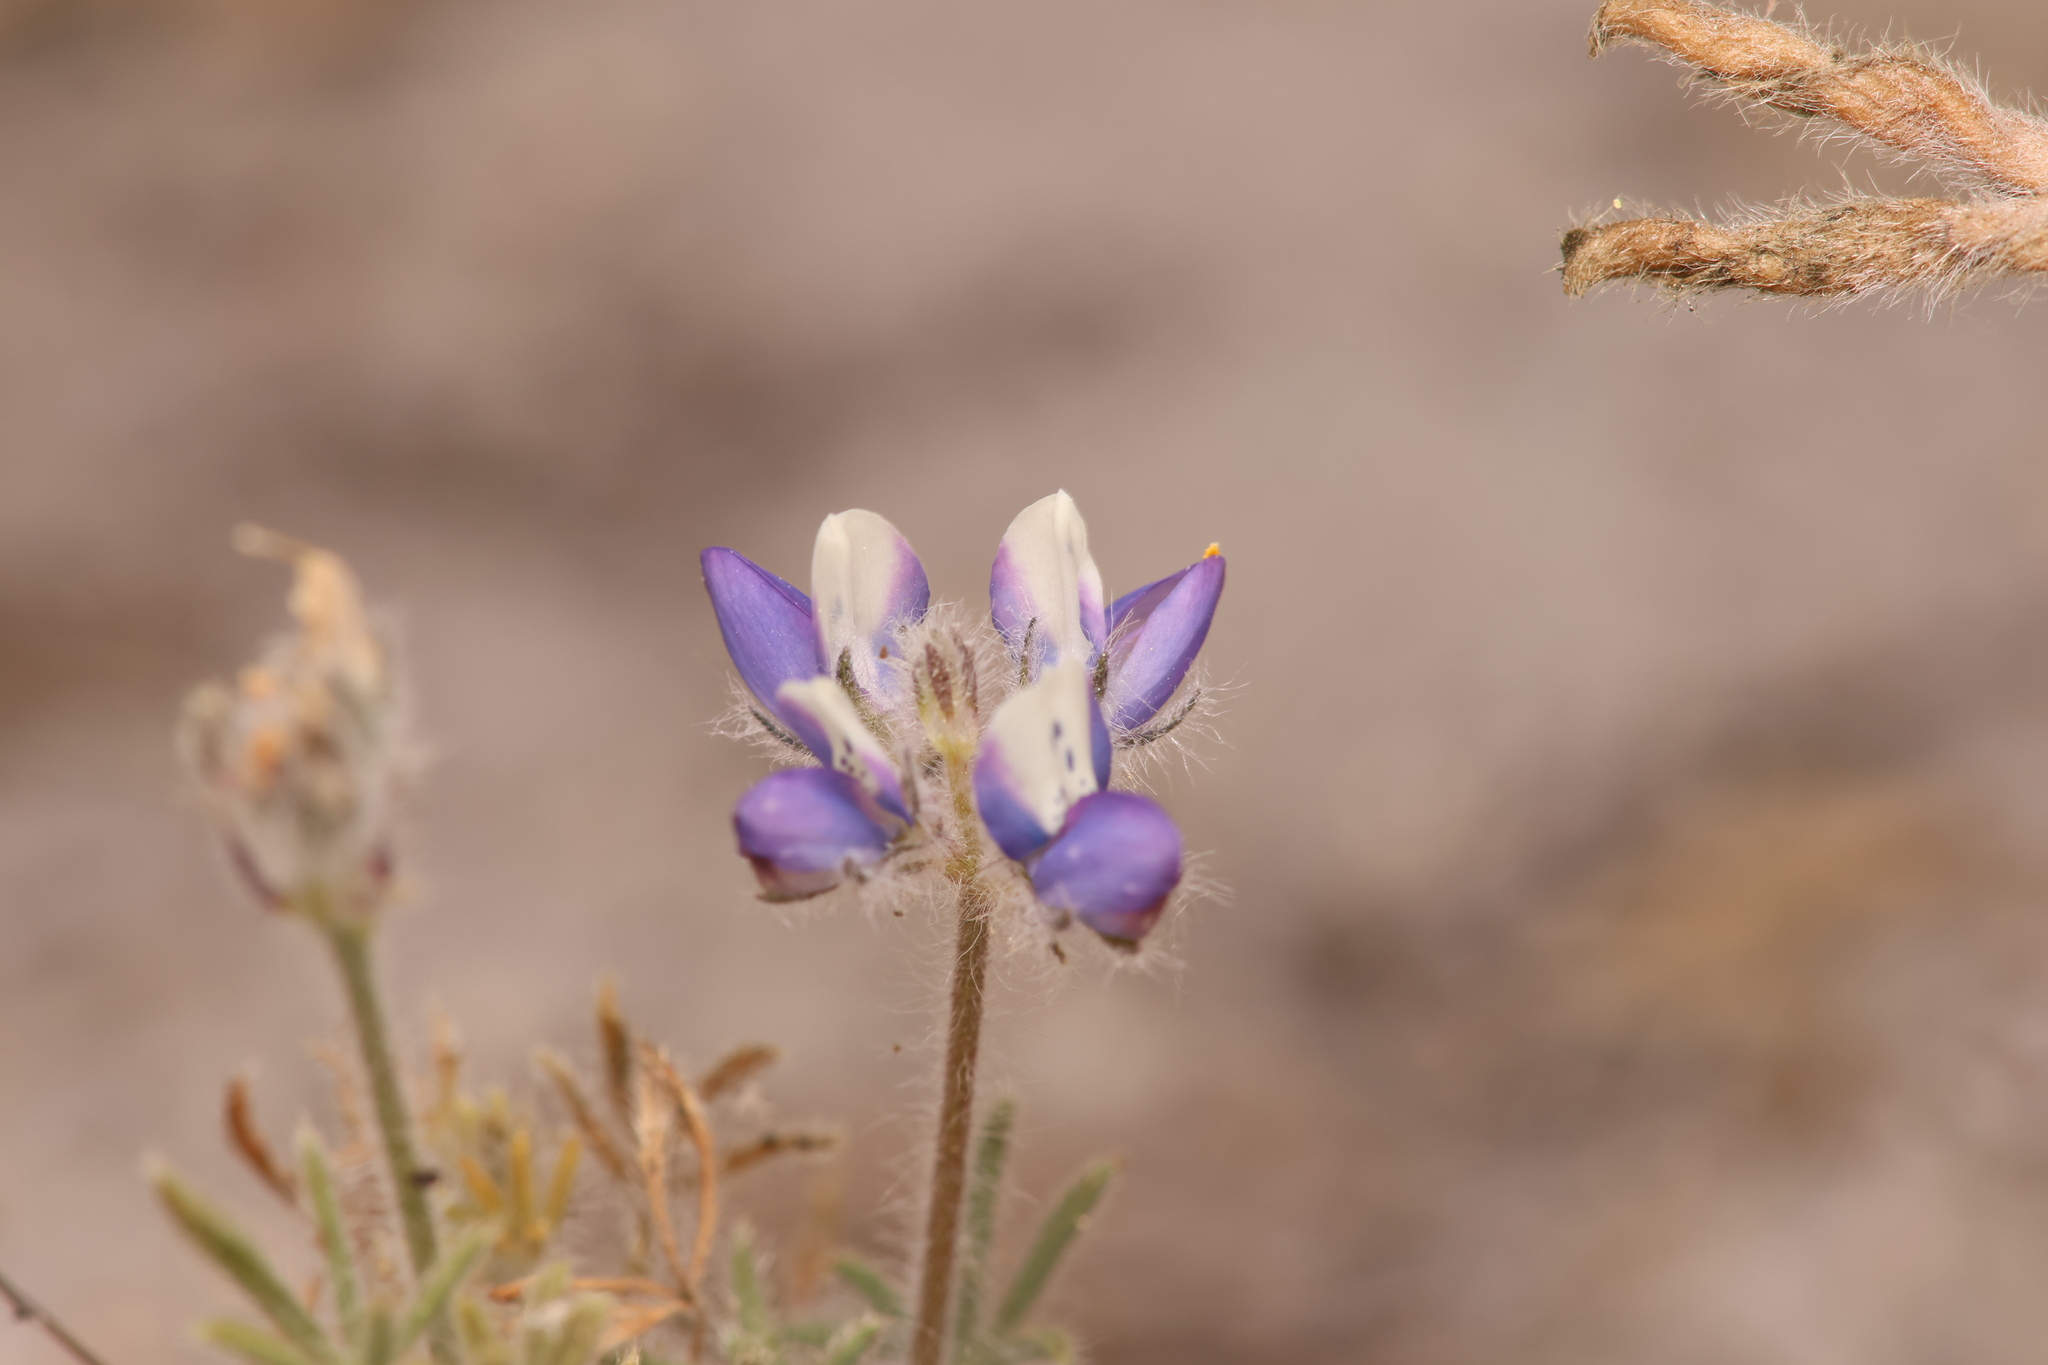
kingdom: Plantae
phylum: Tracheophyta
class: Magnoliopsida
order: Fabales
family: Fabaceae
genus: Lupinus
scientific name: Lupinus bicolor
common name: Miniature lupine
